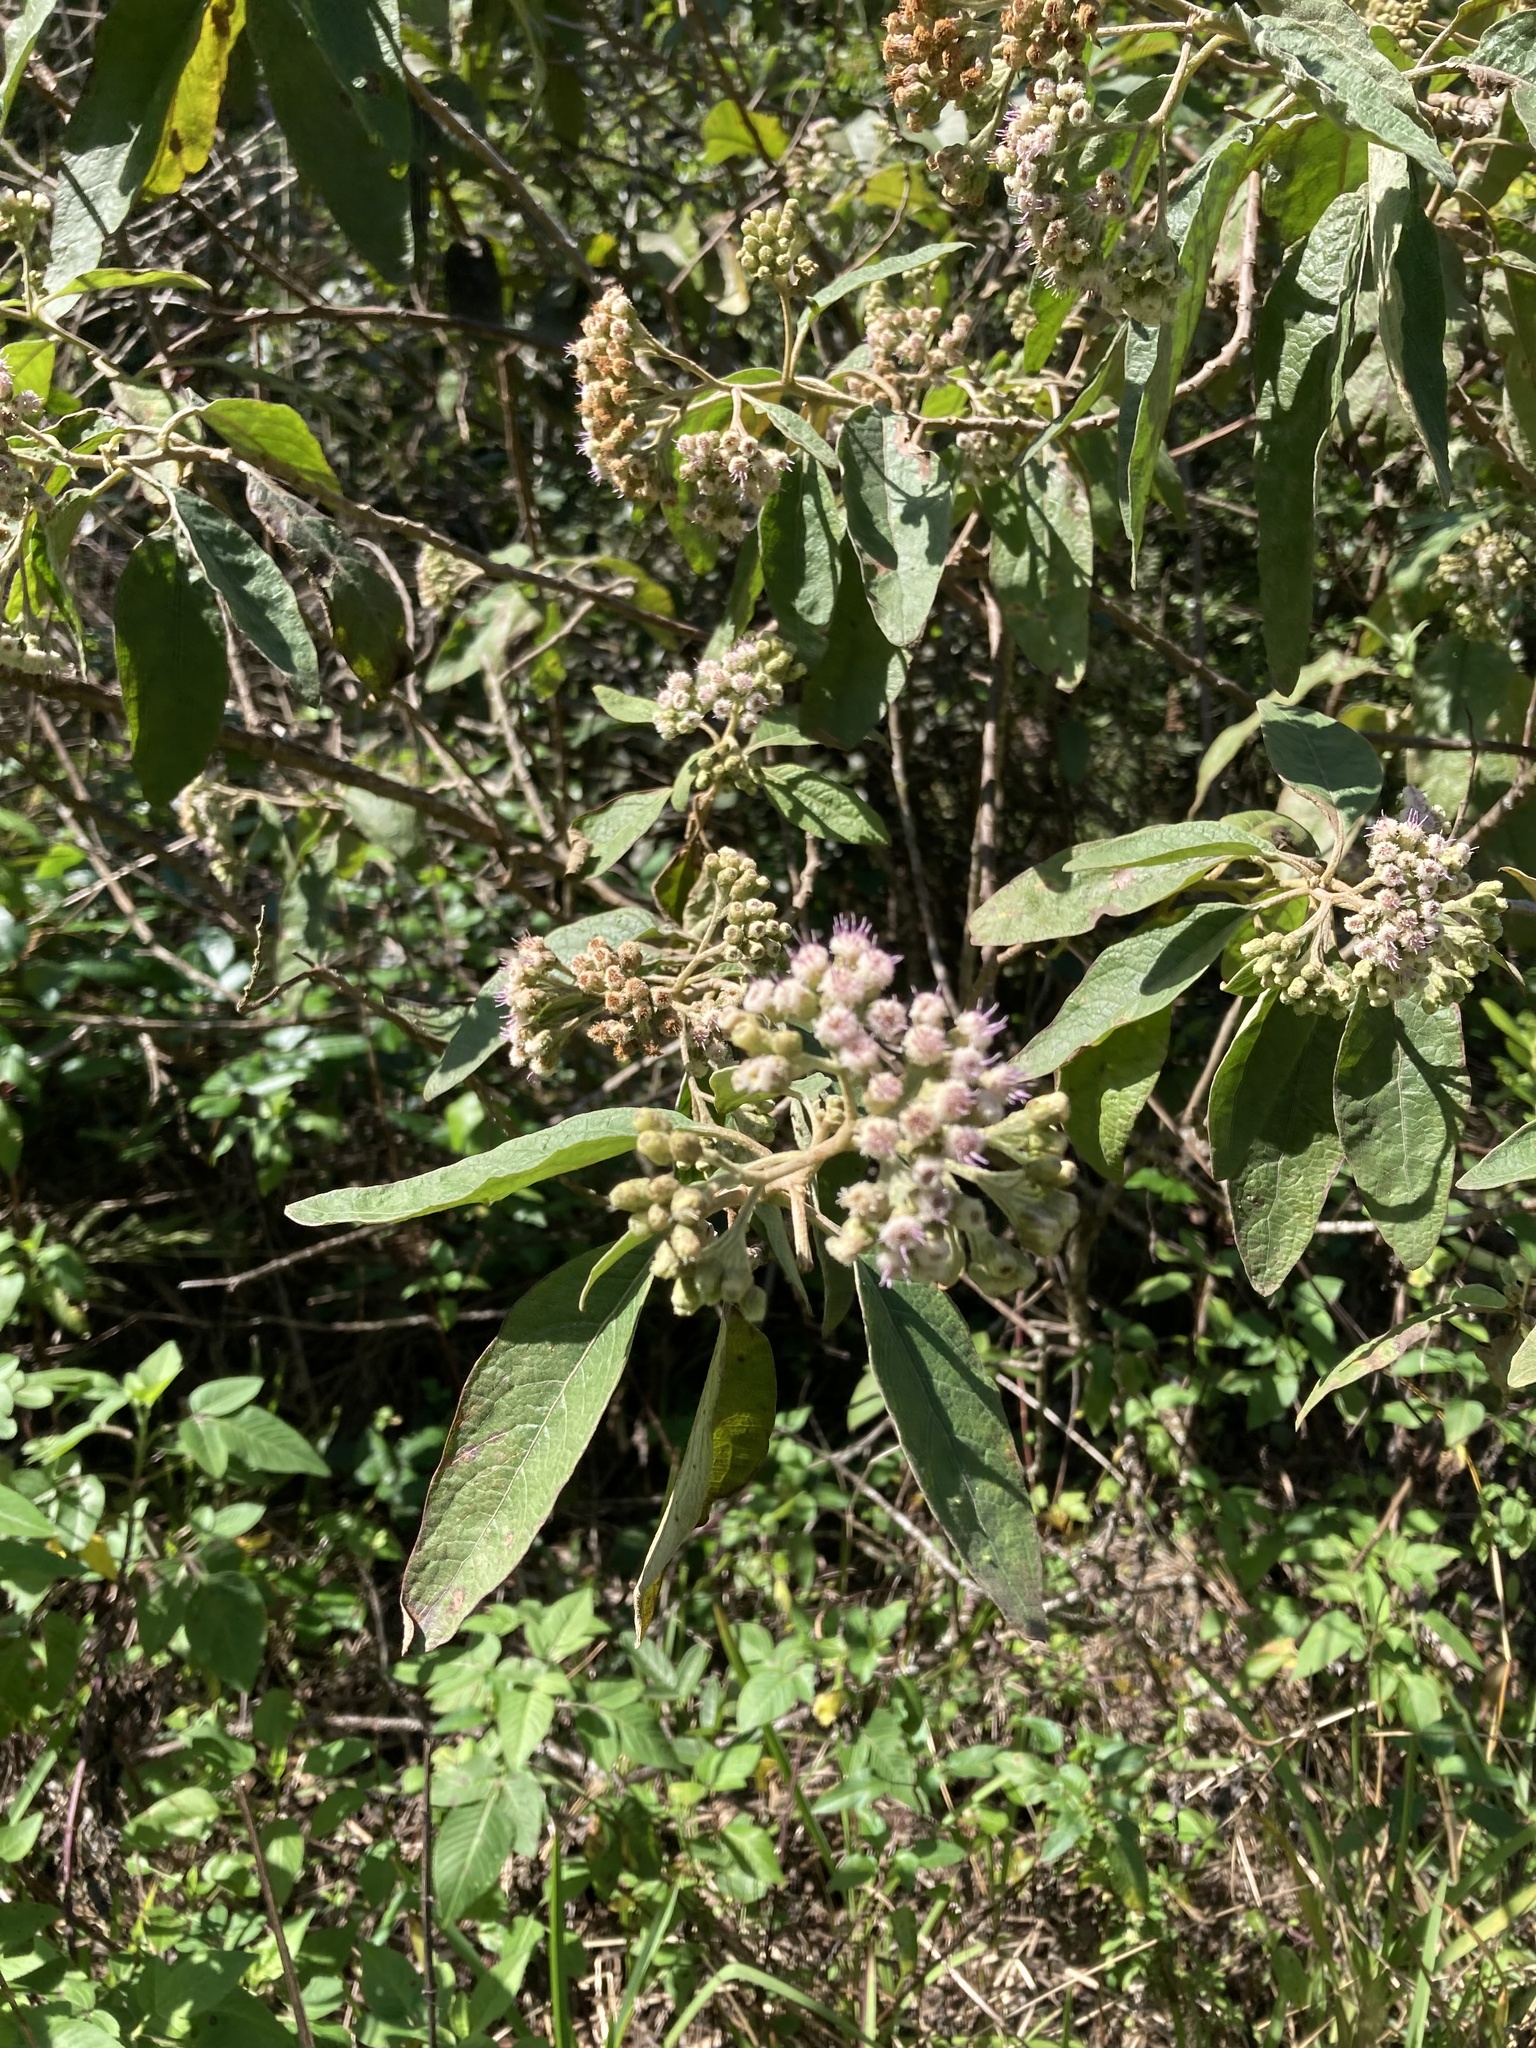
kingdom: Plantae
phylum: Tracheophyta
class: Magnoliopsida
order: Asterales
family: Asteraceae
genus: Pluchea
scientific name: Pluchea carolinensis
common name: Marsh fleabane
